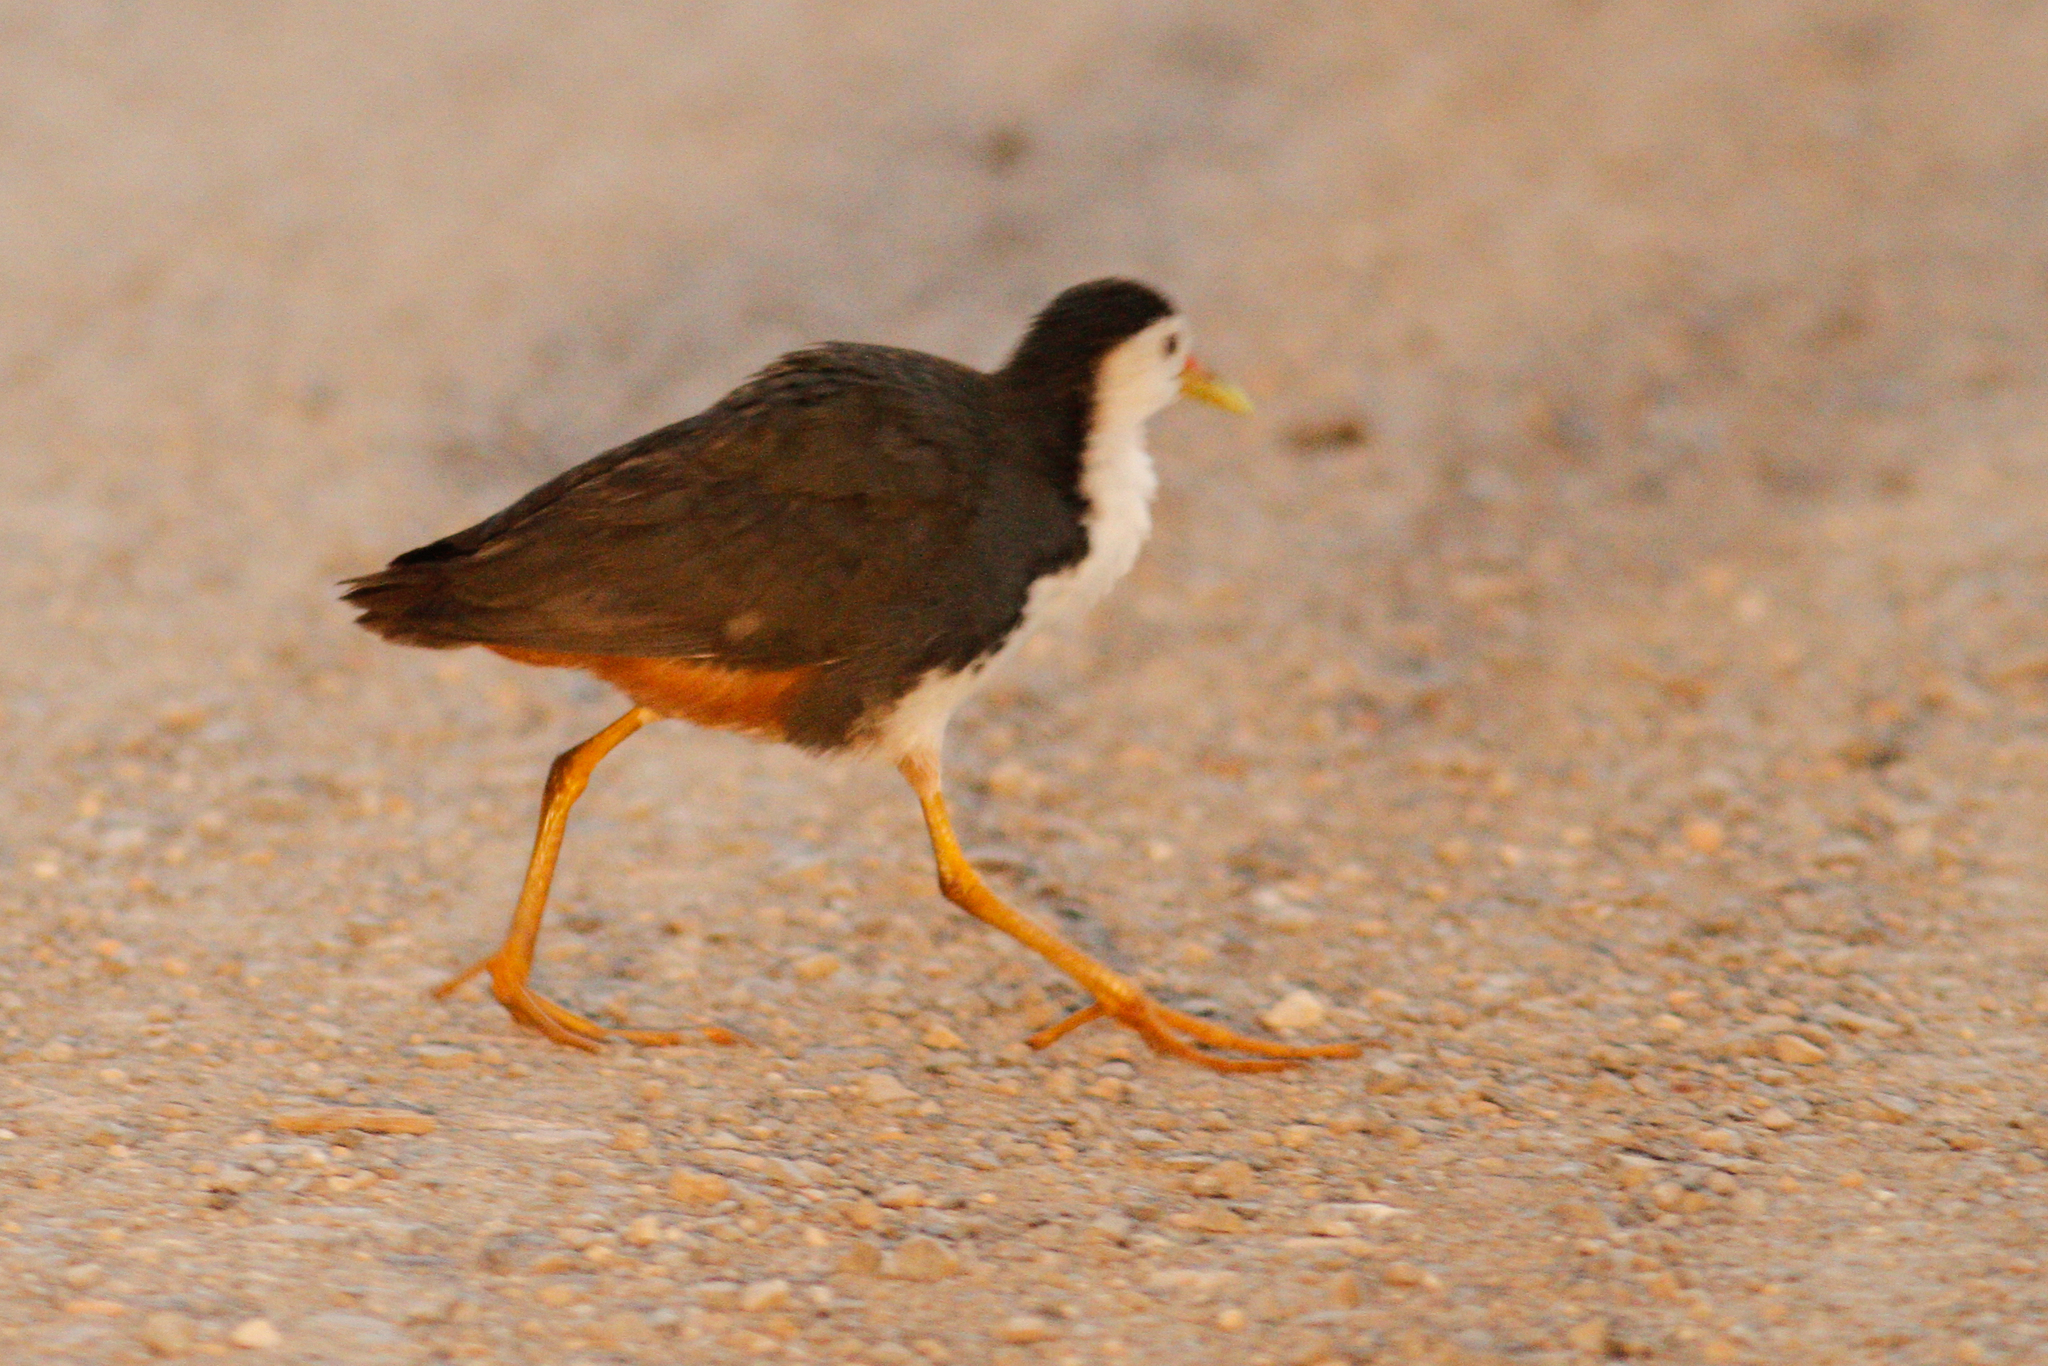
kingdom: Animalia
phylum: Chordata
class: Aves
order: Gruiformes
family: Rallidae
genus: Amaurornis
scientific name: Amaurornis phoenicurus
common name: White-breasted waterhen
